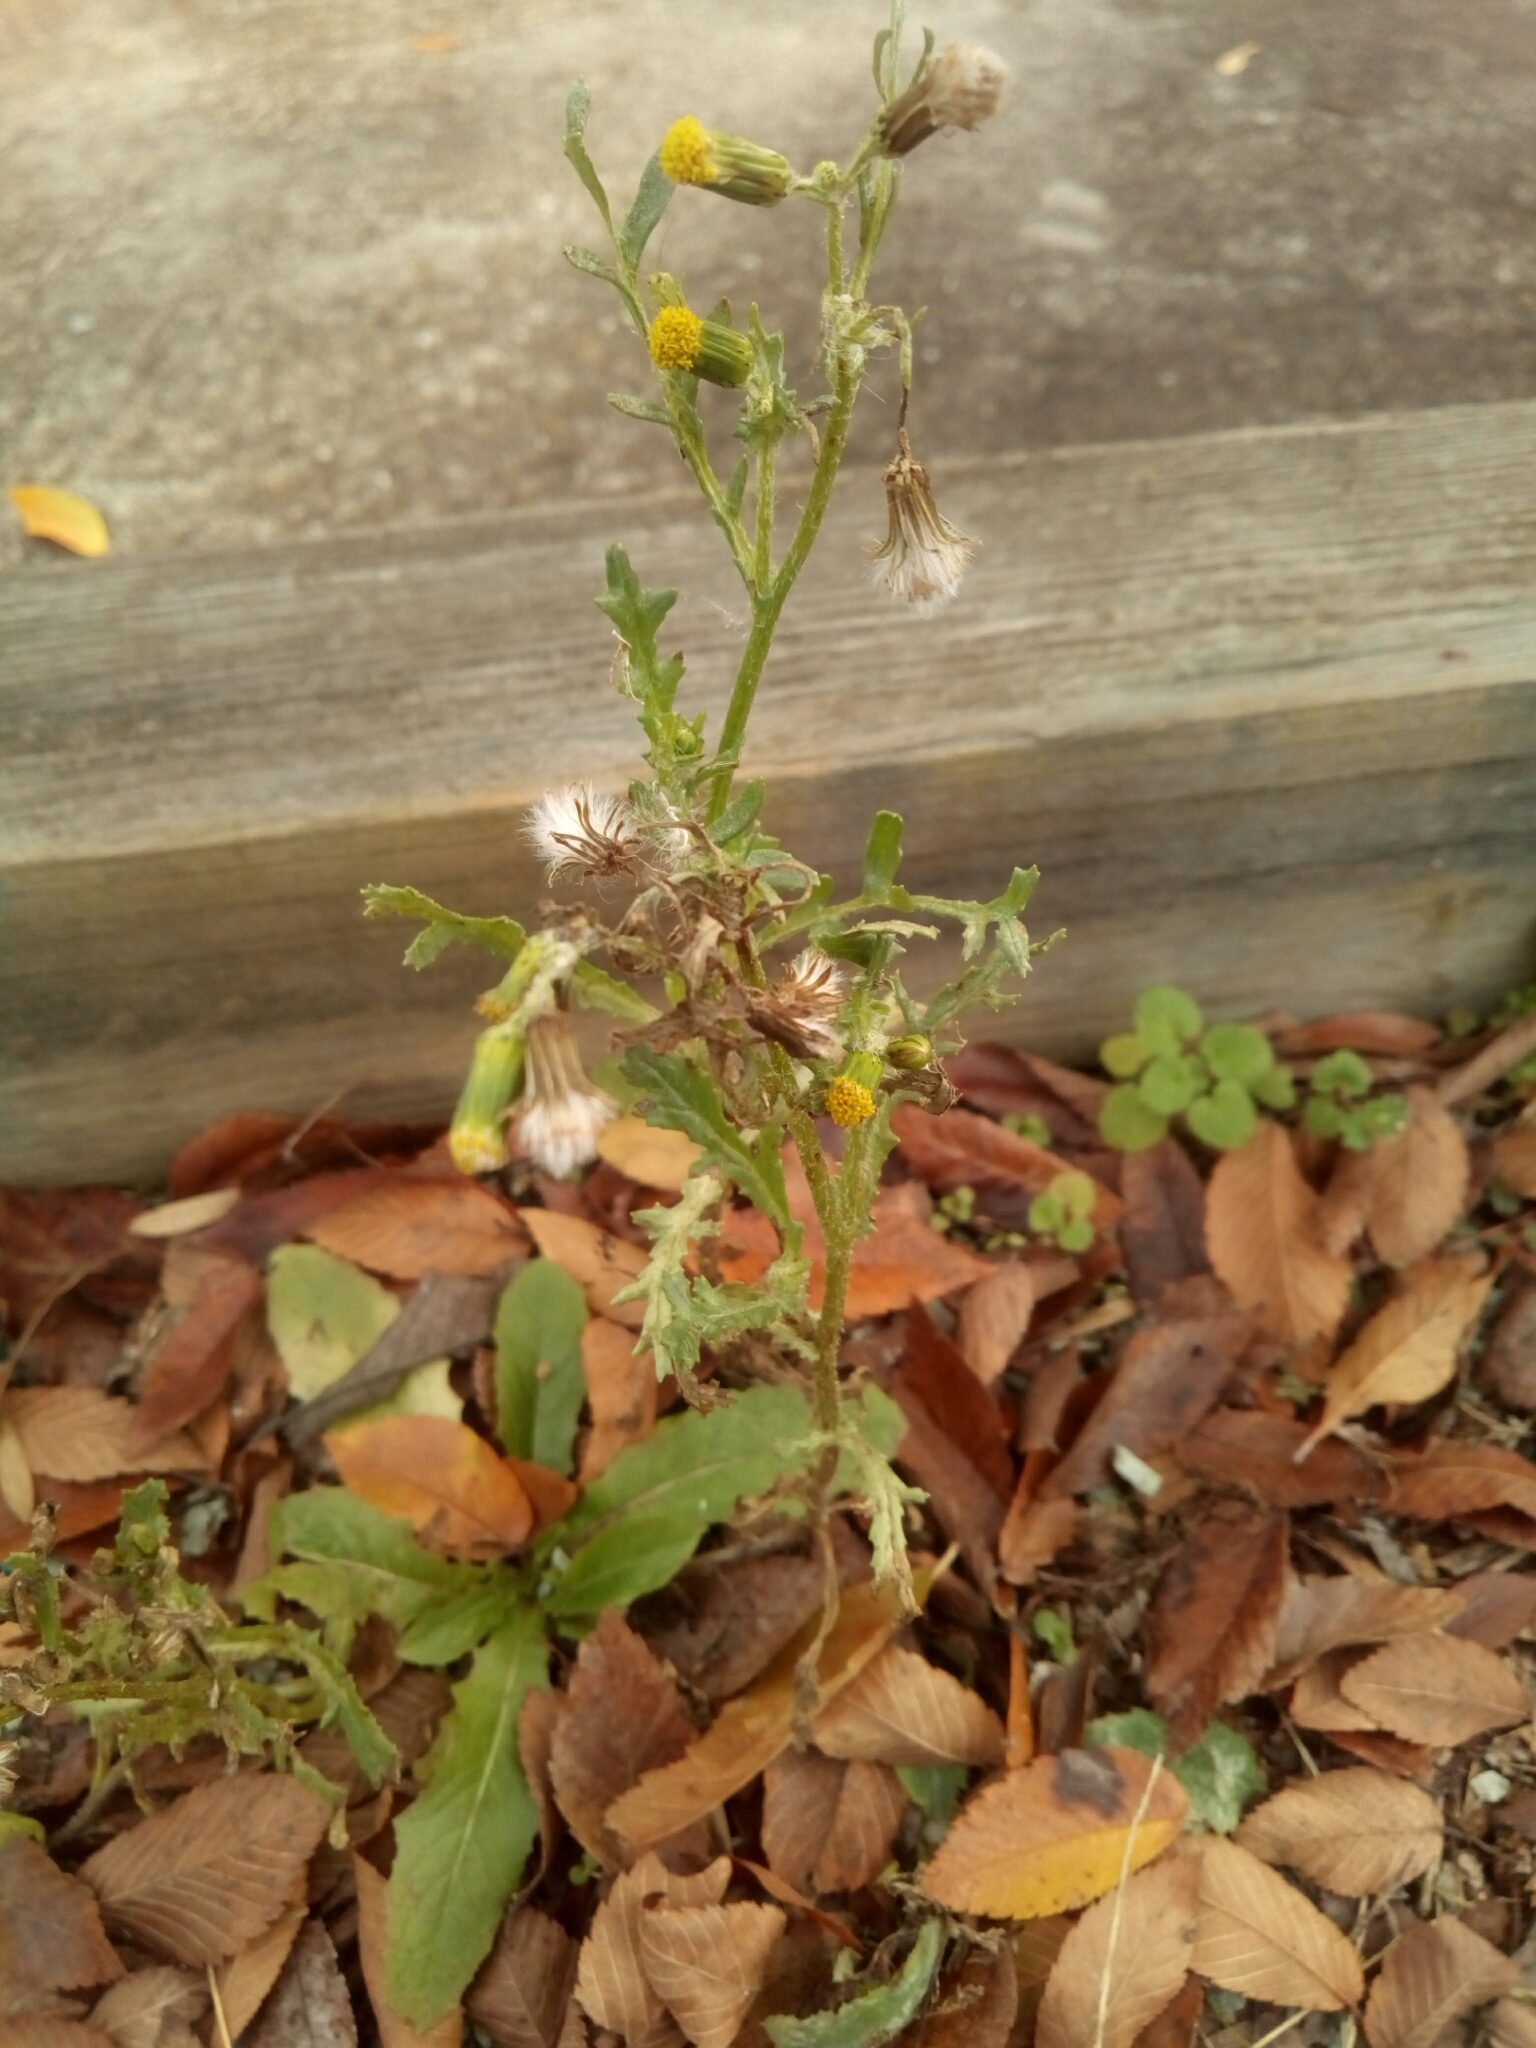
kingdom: Plantae
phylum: Tracheophyta
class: Magnoliopsida
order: Asterales
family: Asteraceae
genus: Senecio
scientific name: Senecio vulgaris
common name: Old-man-in-the-spring
